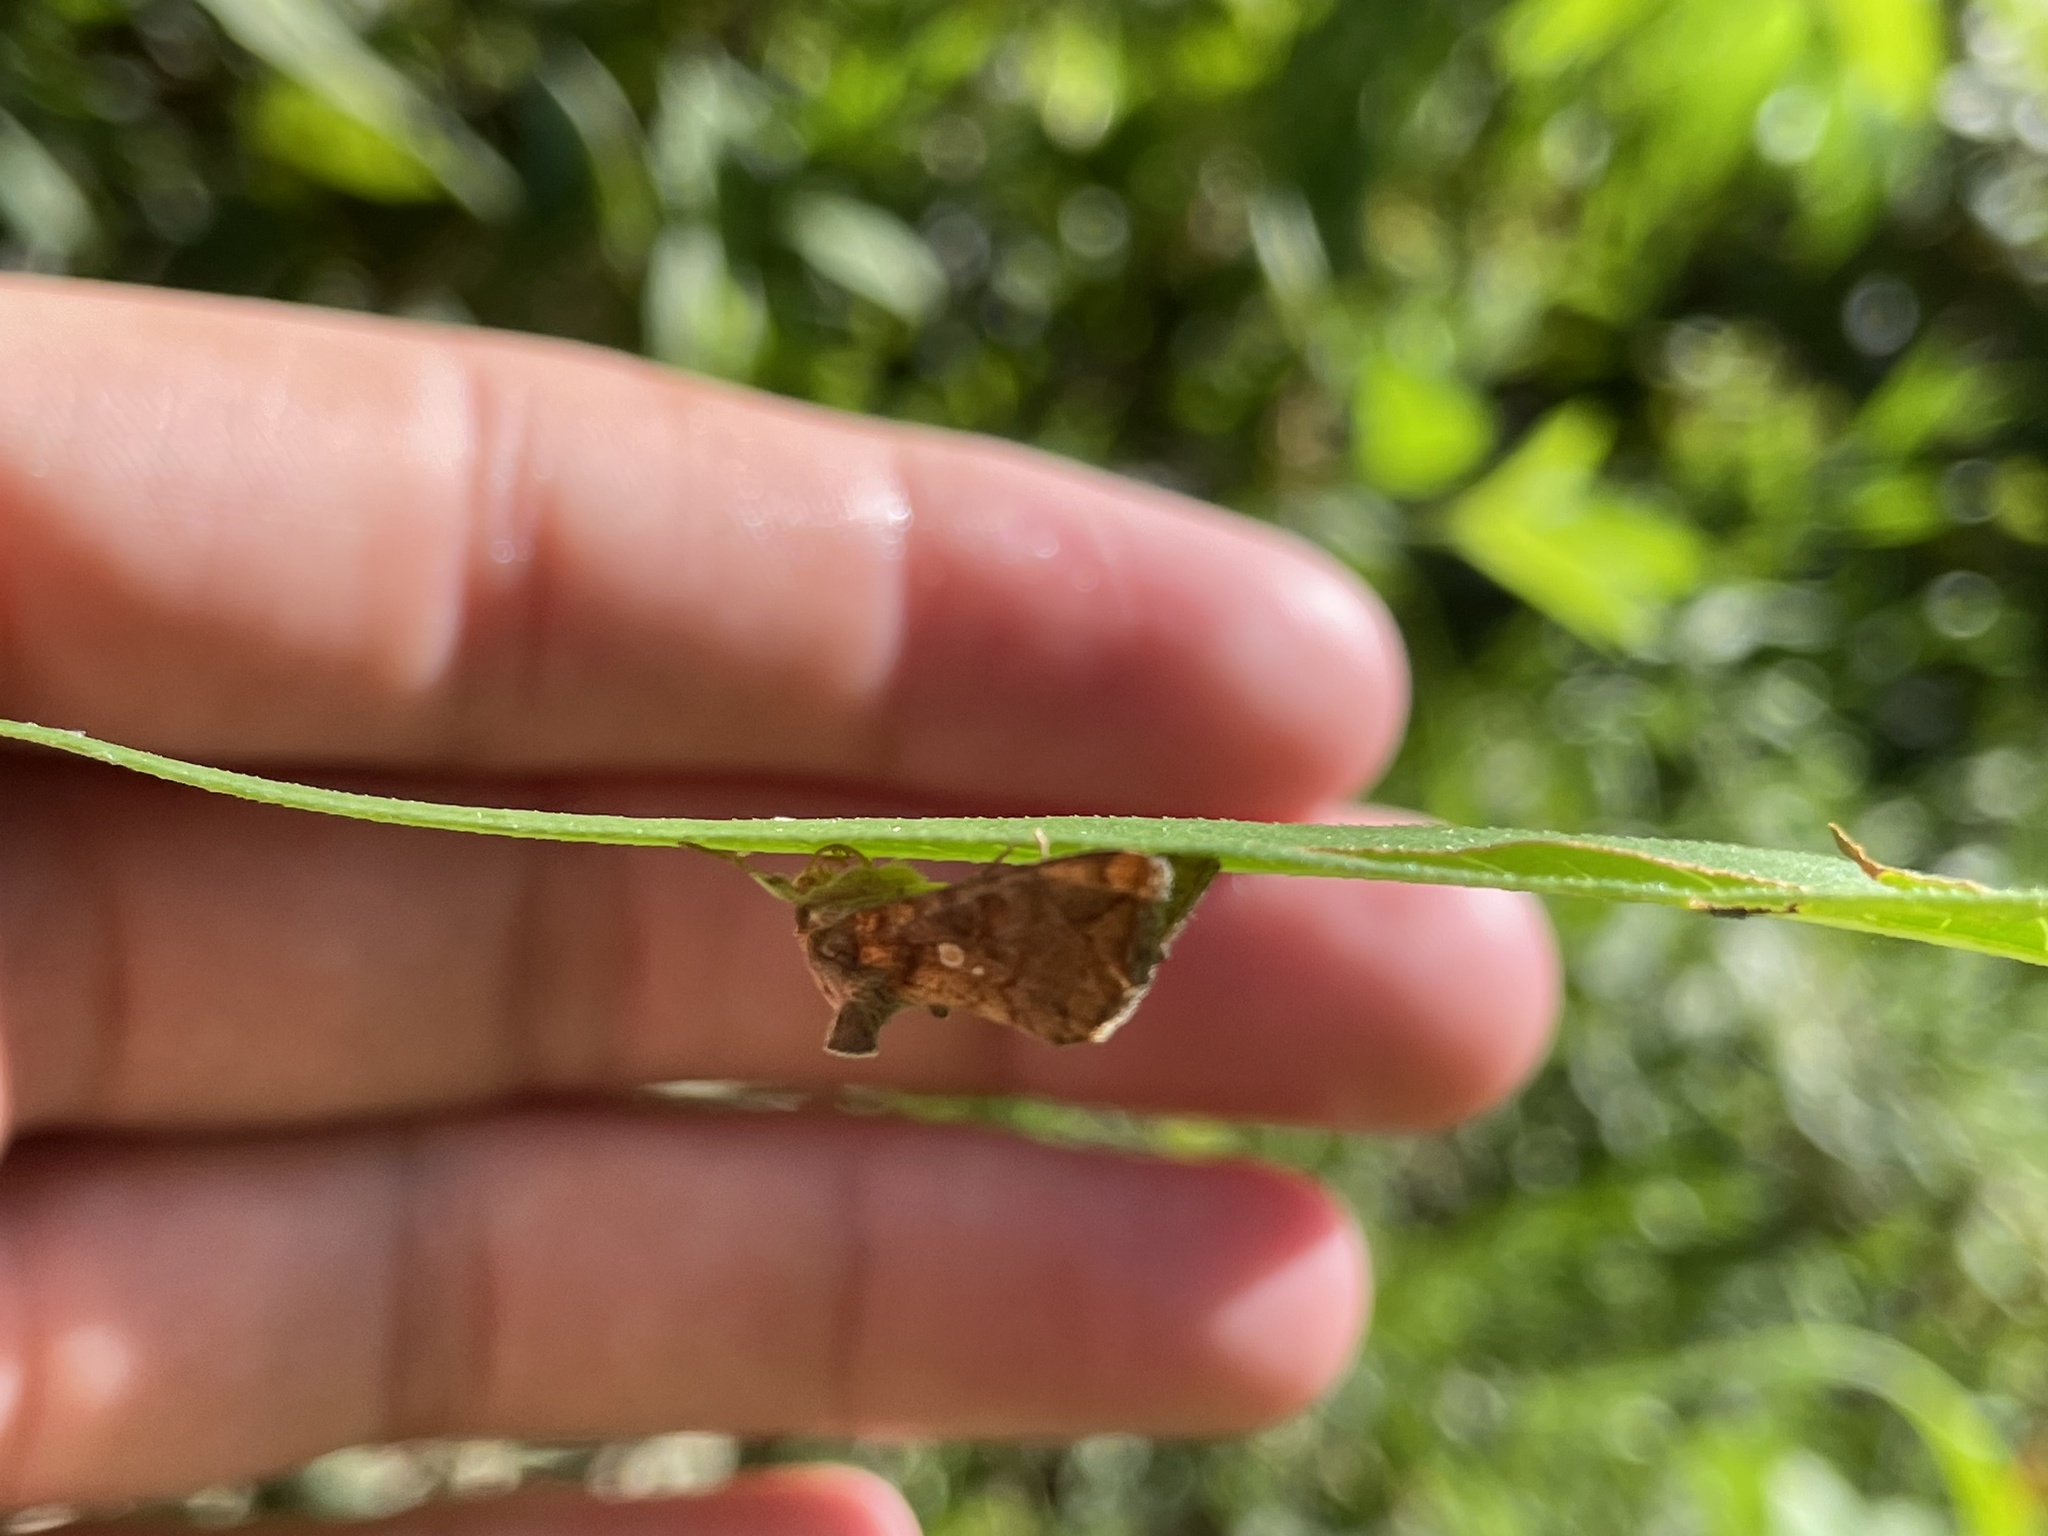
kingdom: Animalia
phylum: Arthropoda
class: Insecta
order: Lepidoptera
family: Noctuidae
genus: Argyrogramma
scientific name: Argyrogramma verruca
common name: Golden looper moth
